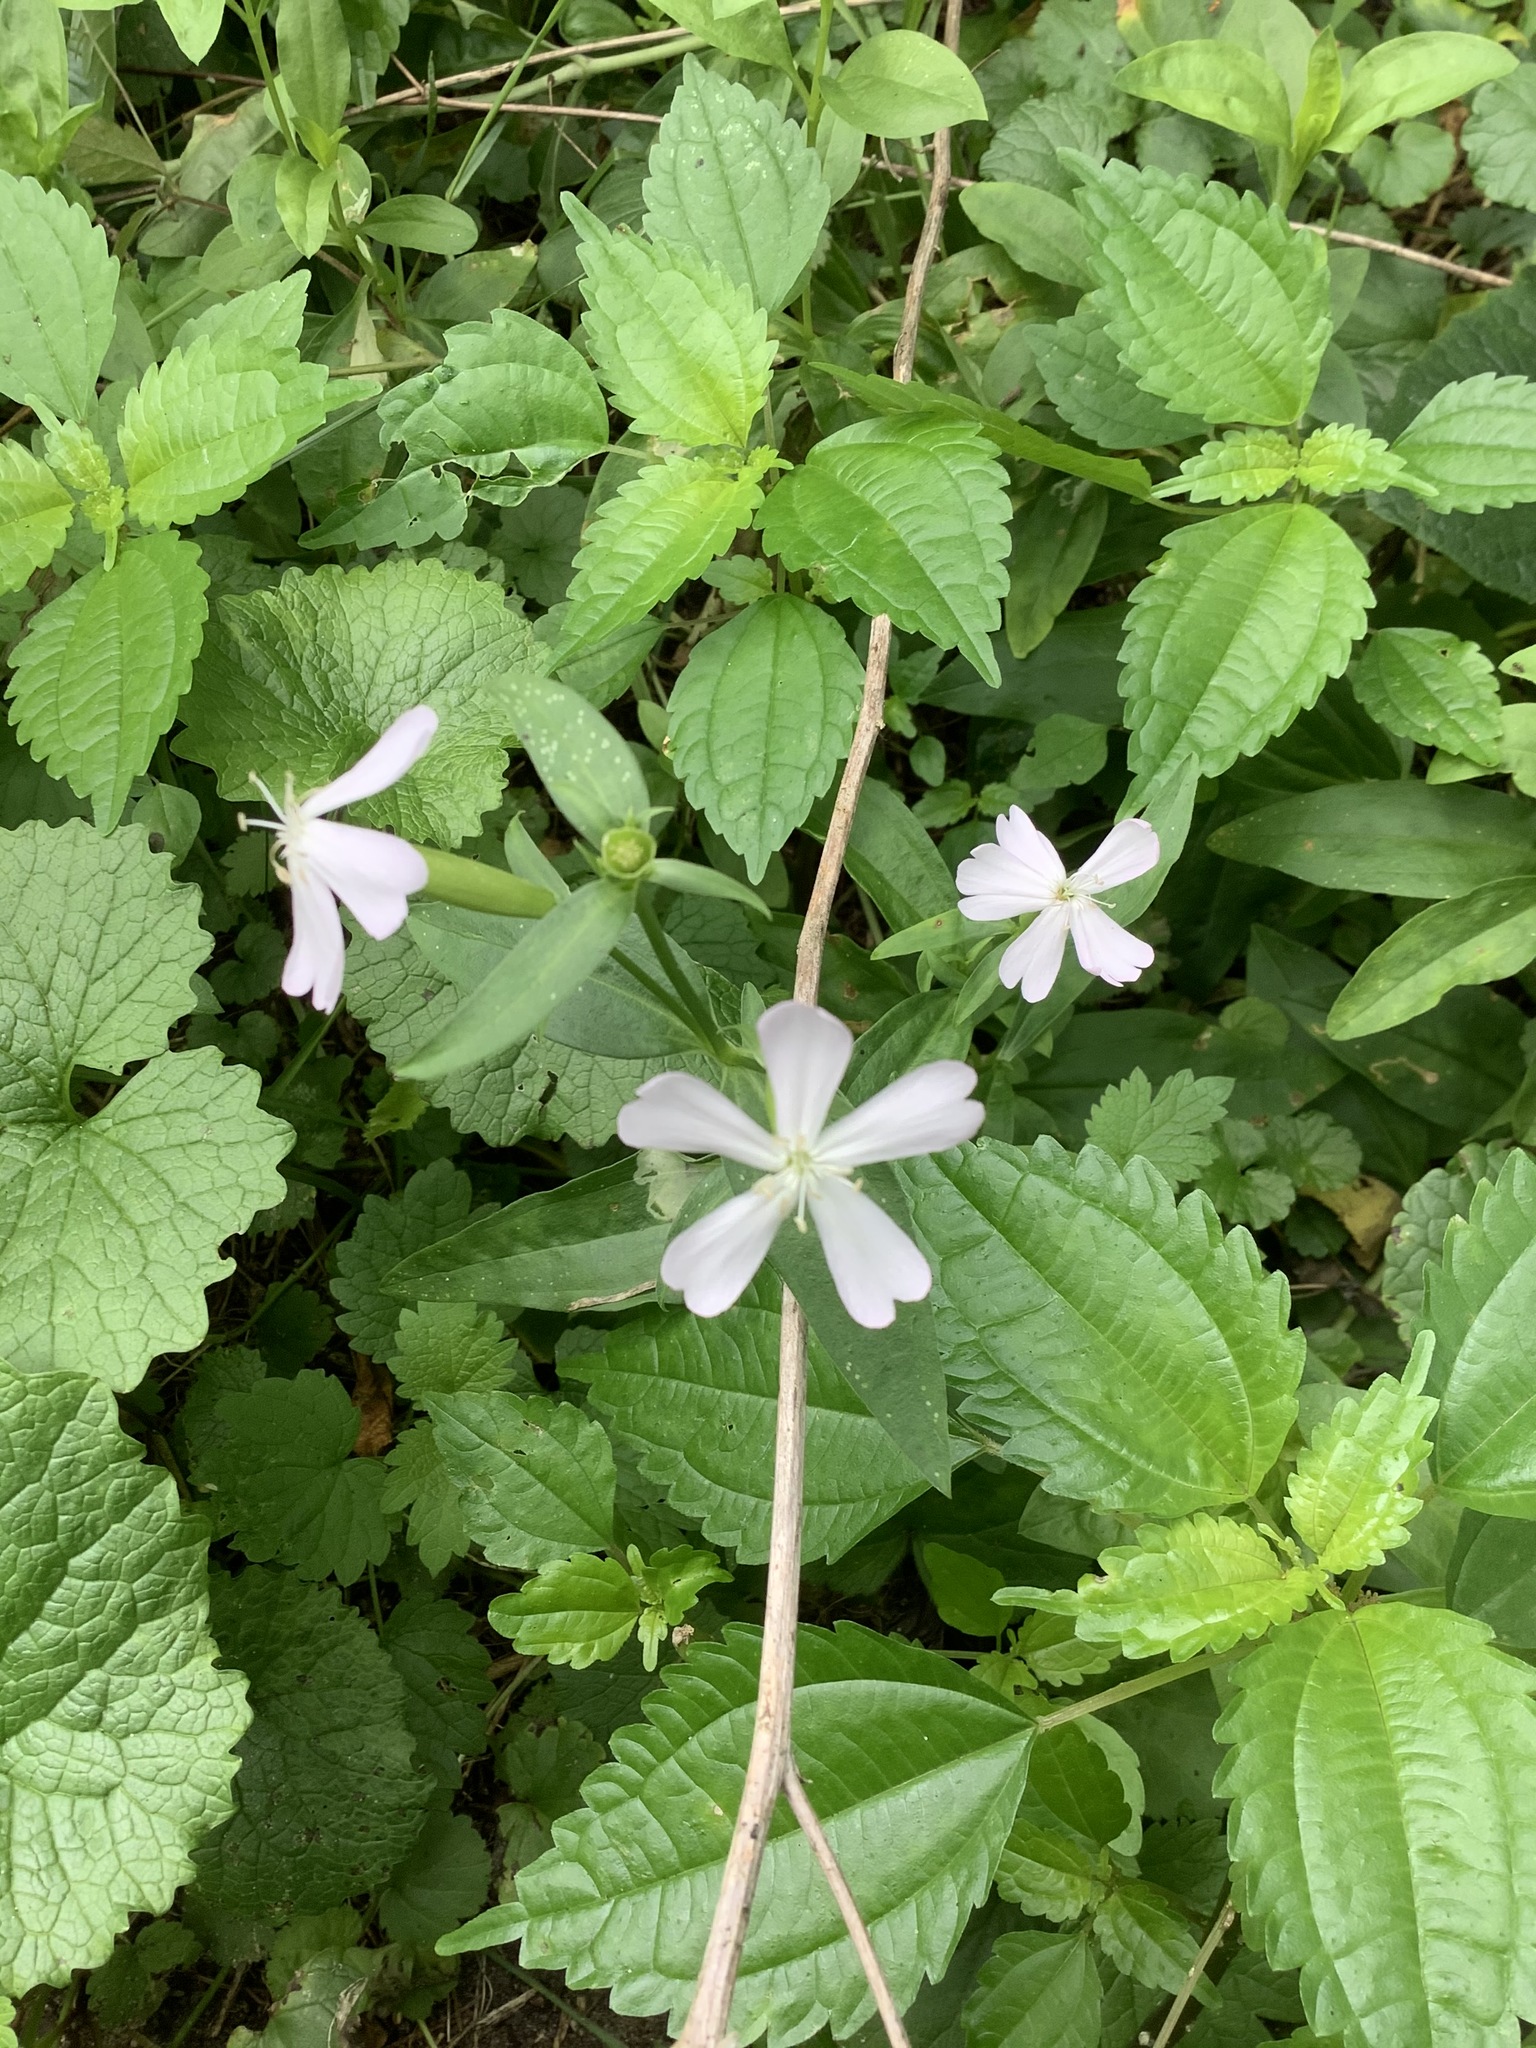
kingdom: Plantae
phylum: Tracheophyta
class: Magnoliopsida
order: Caryophyllales
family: Caryophyllaceae
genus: Saponaria
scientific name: Saponaria officinalis
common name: Soapwort
